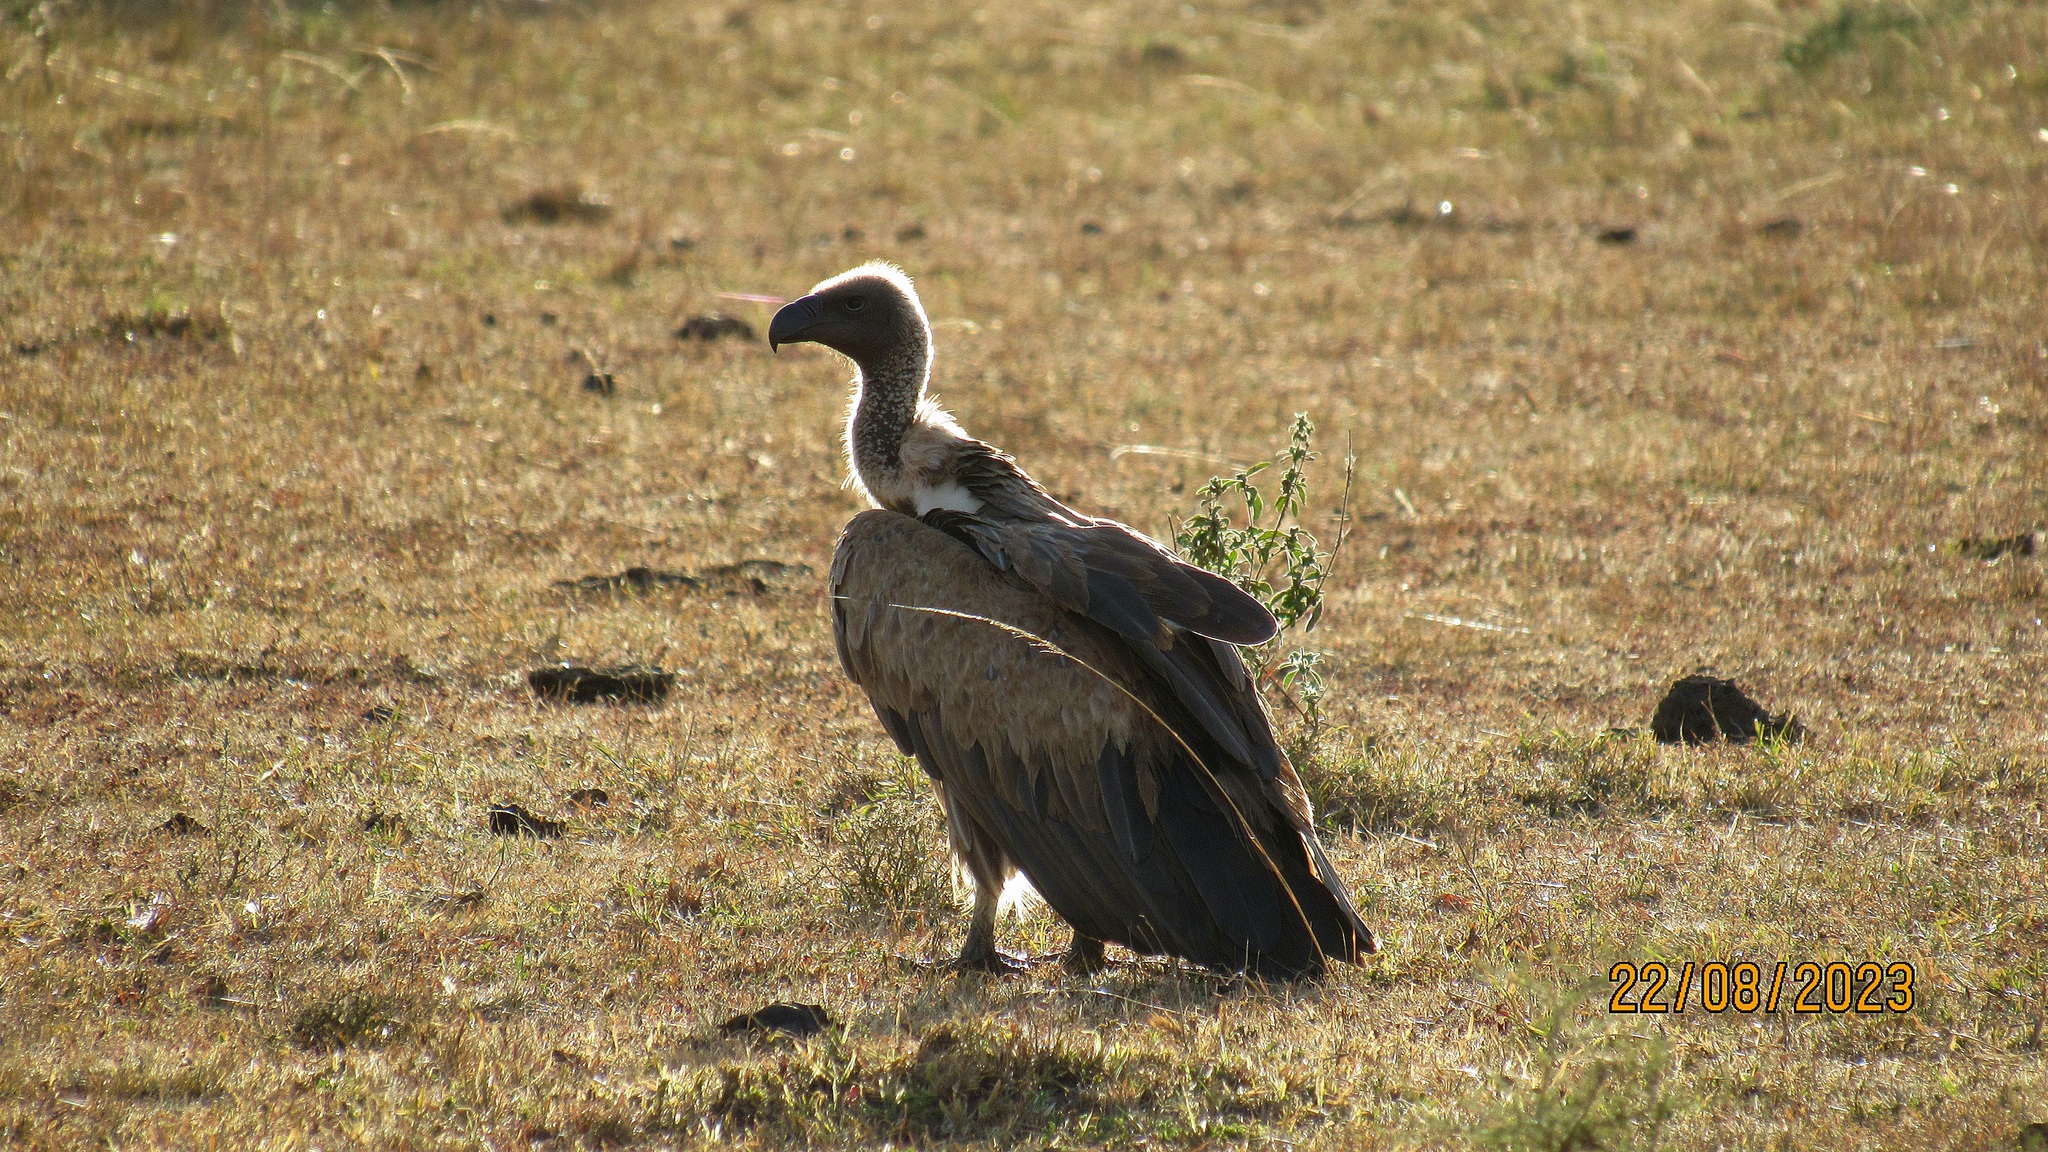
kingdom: Animalia
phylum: Chordata
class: Aves
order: Accipitriformes
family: Accipitridae
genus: Gyps
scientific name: Gyps rueppellii
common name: Rüppell's vulture
